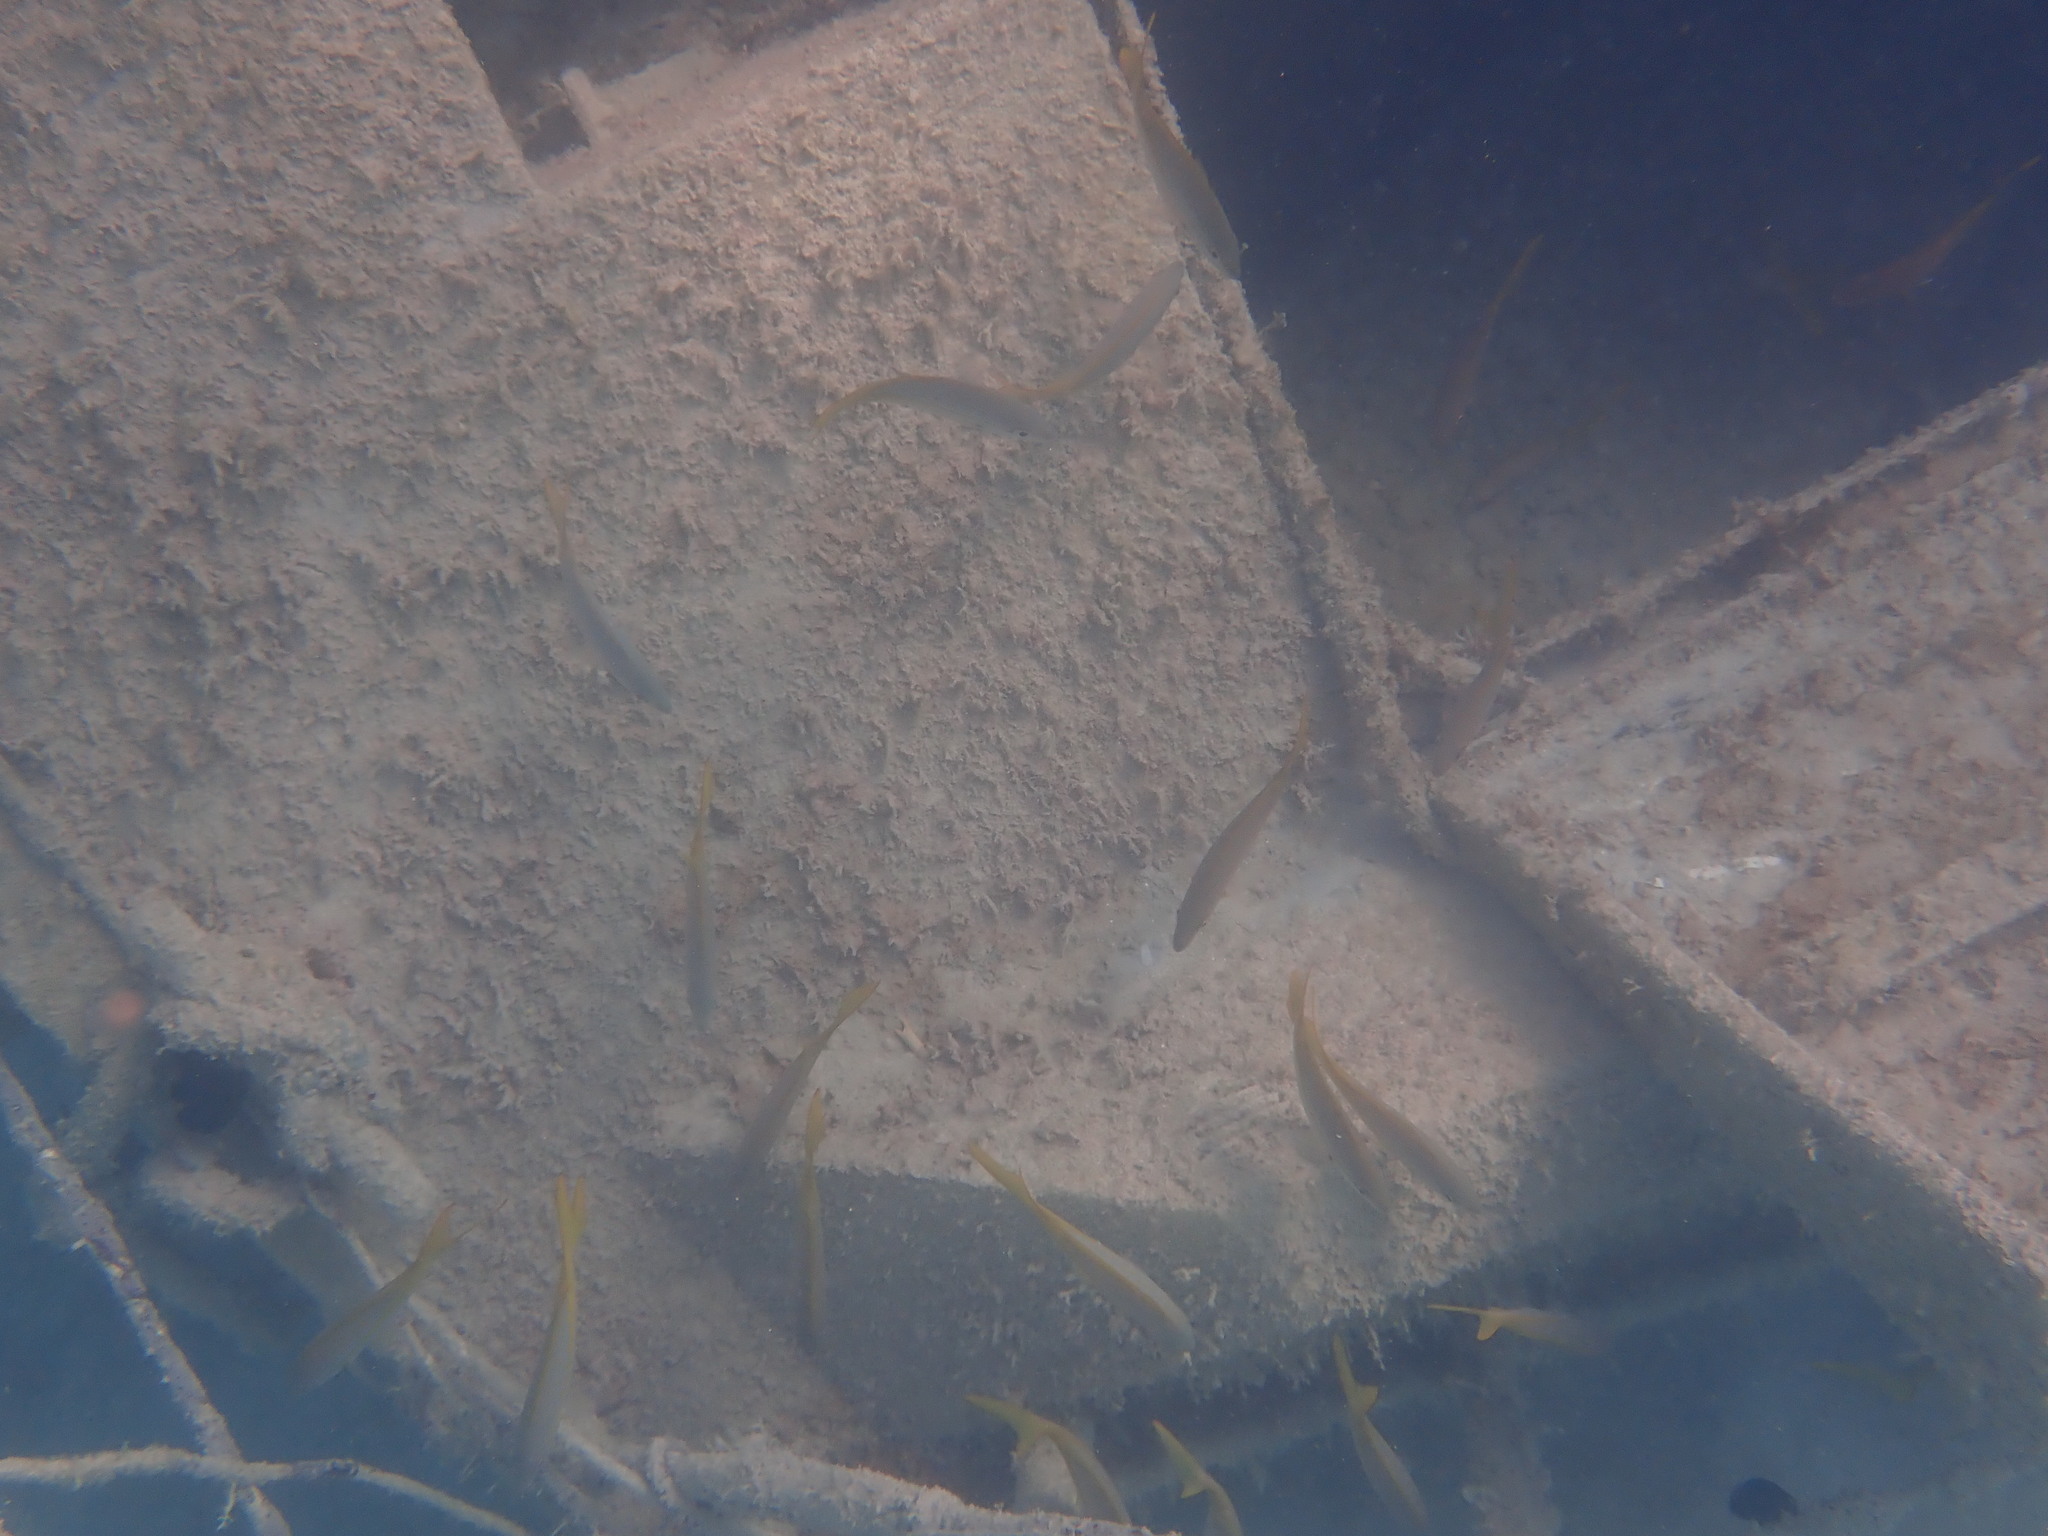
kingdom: Animalia
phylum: Chordata
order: Perciformes
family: Lutjanidae
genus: Ocyurus
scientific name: Ocyurus chrysurus
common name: Yellowtail snapper
